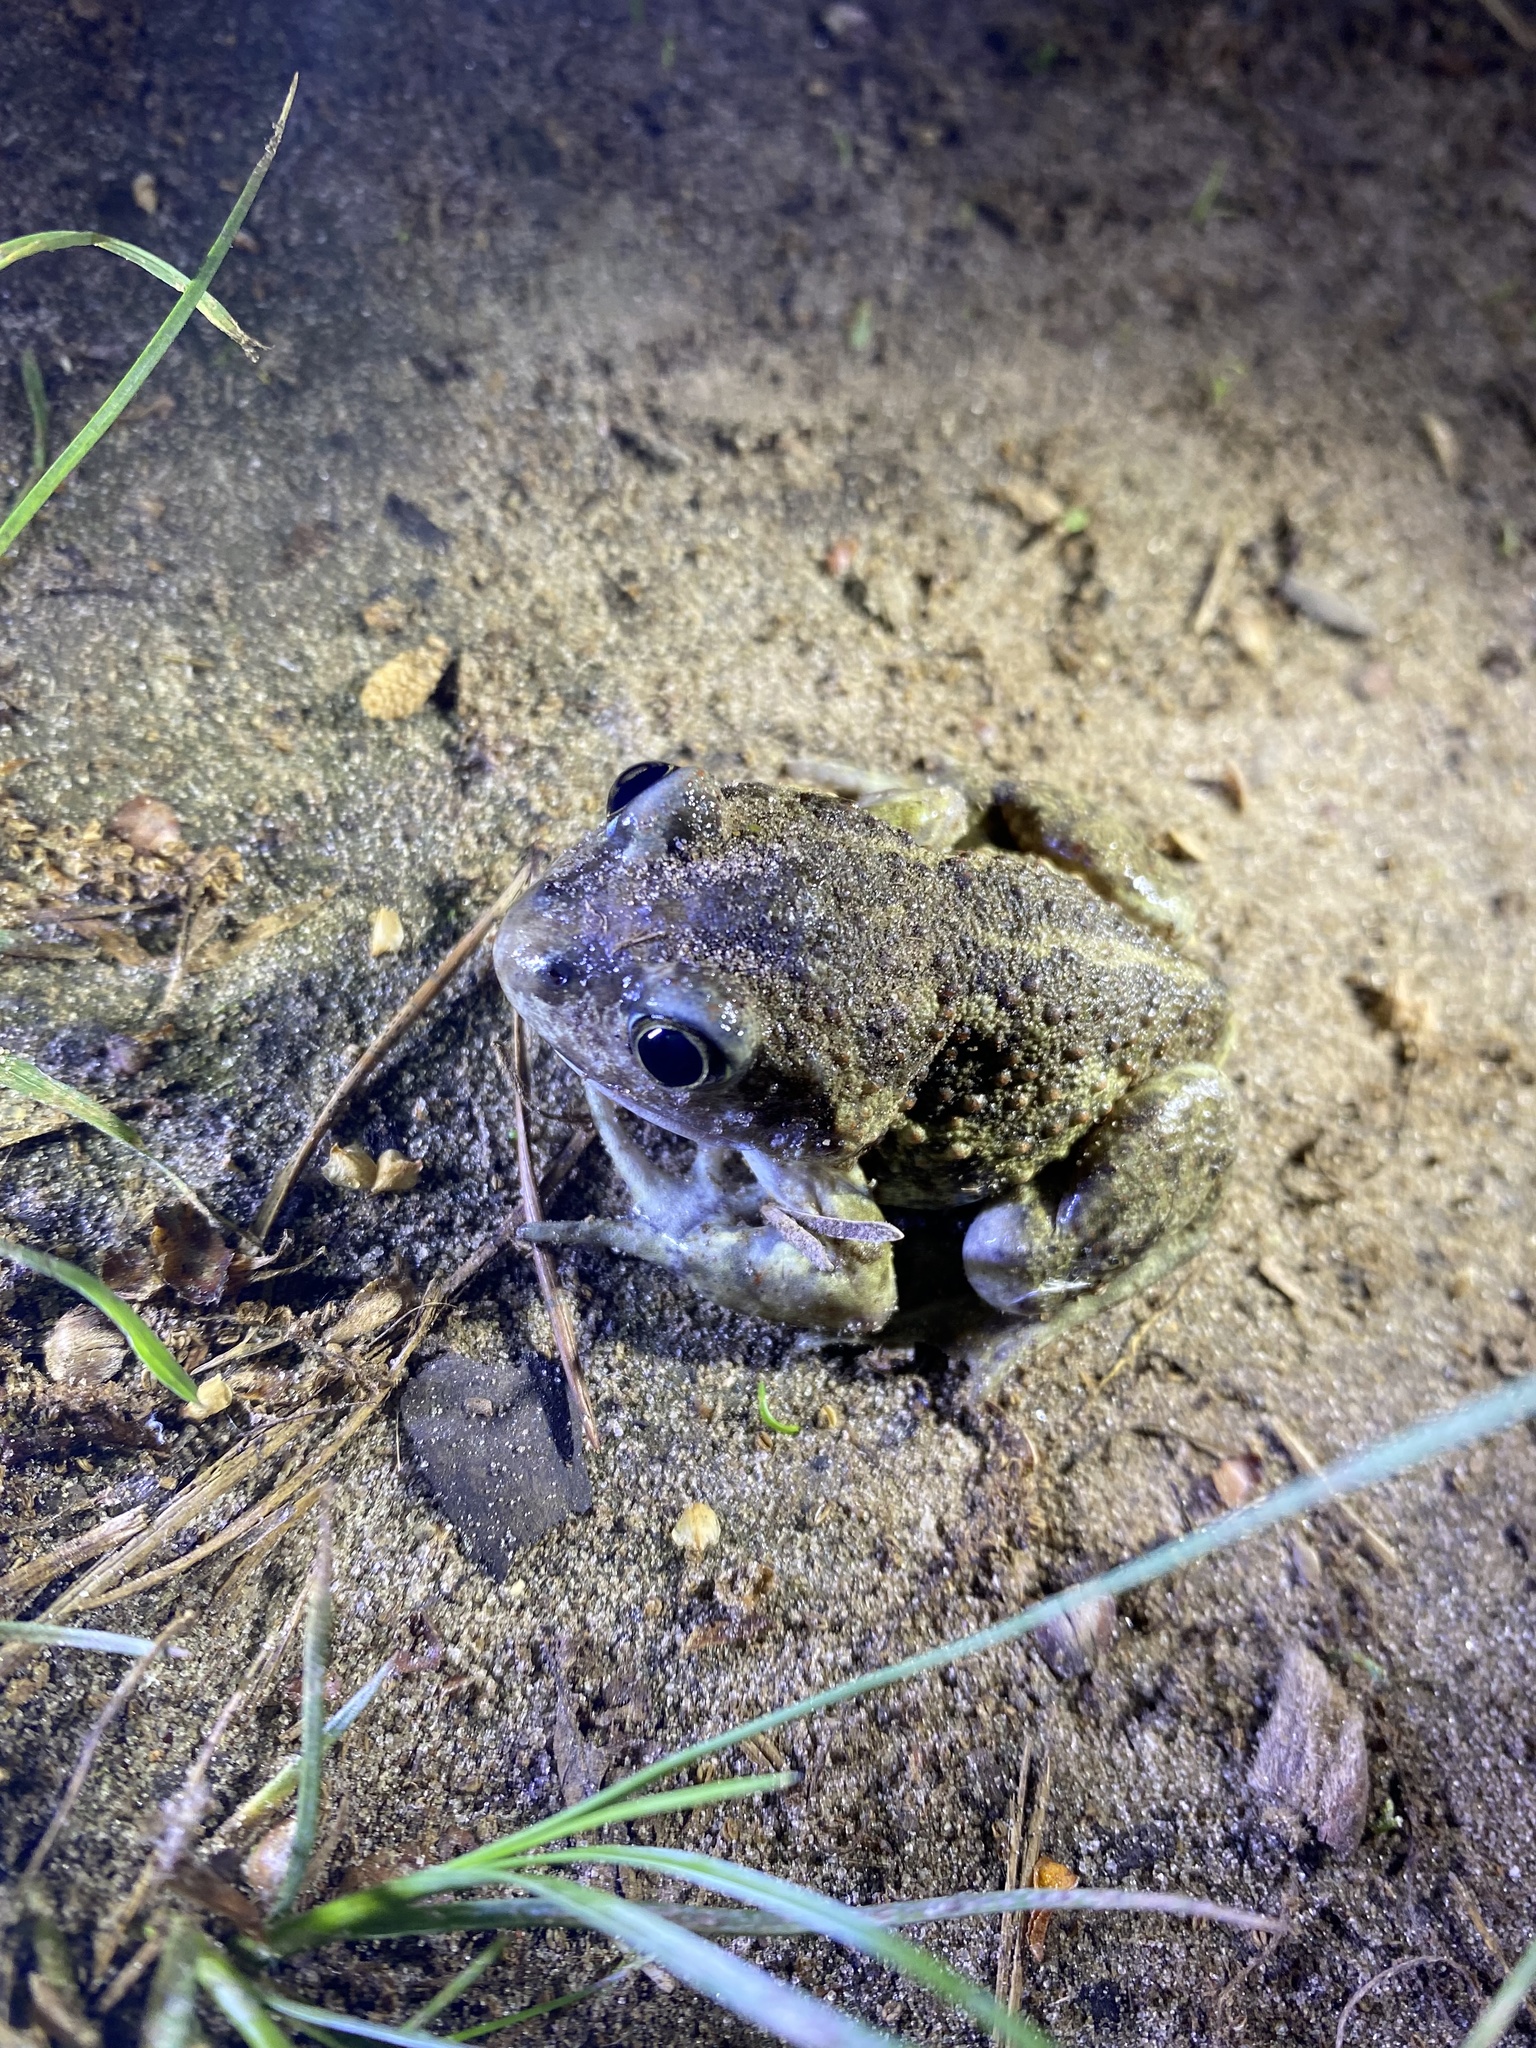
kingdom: Animalia
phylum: Chordata
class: Amphibia
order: Anura
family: Pelobatidae
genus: Pelobates
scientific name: Pelobates vespertinus
